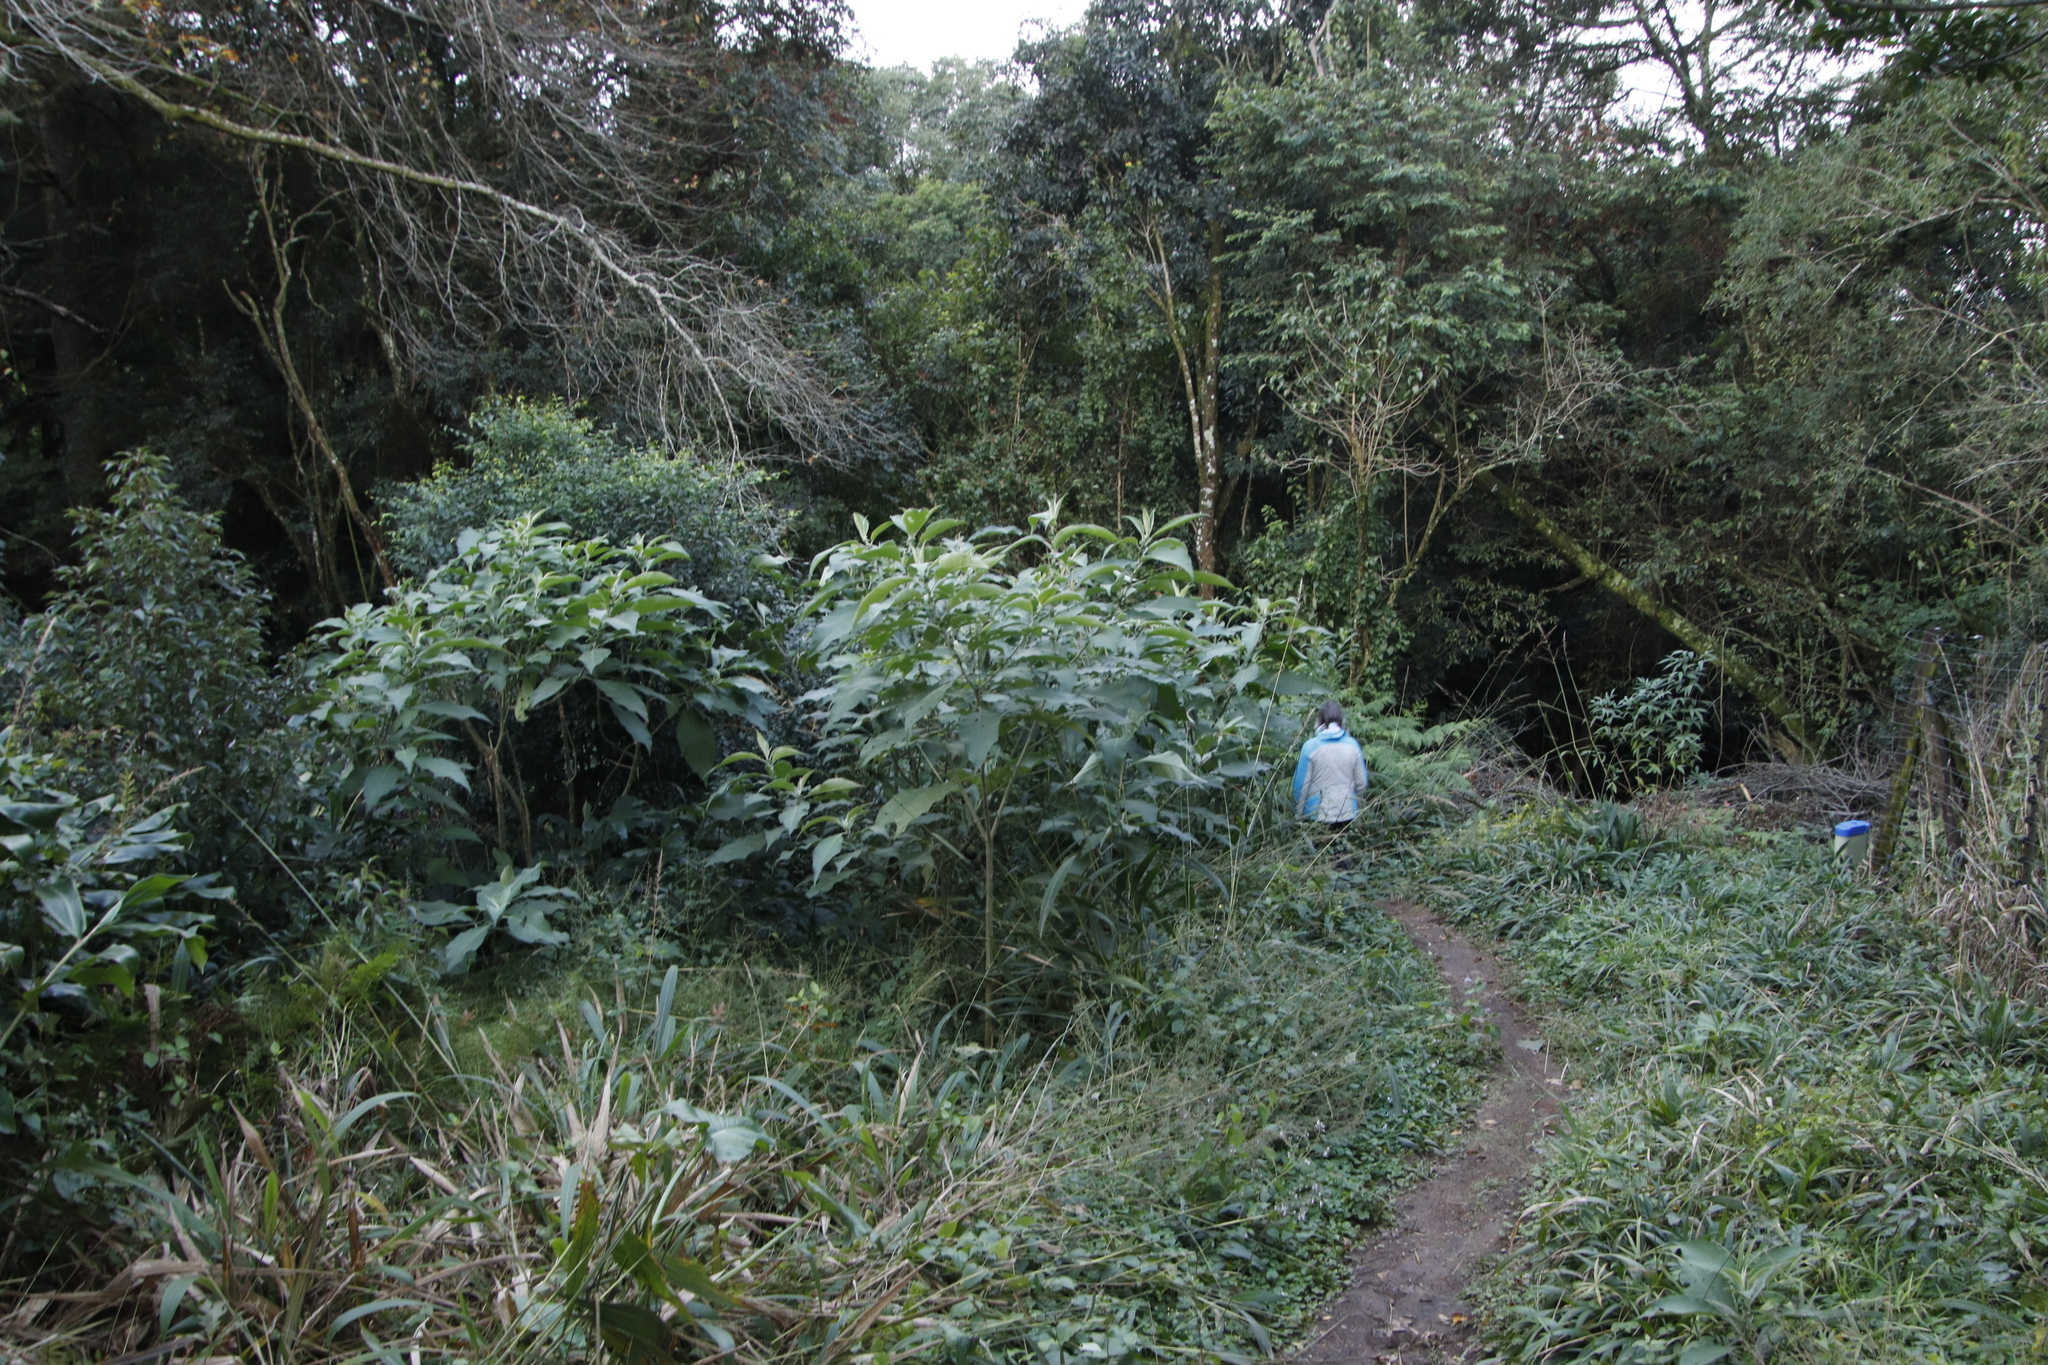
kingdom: Plantae
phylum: Tracheophyta
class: Magnoliopsida
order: Solanales
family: Solanaceae
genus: Solanum
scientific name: Solanum mauritianum
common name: Earleaf nightshade
